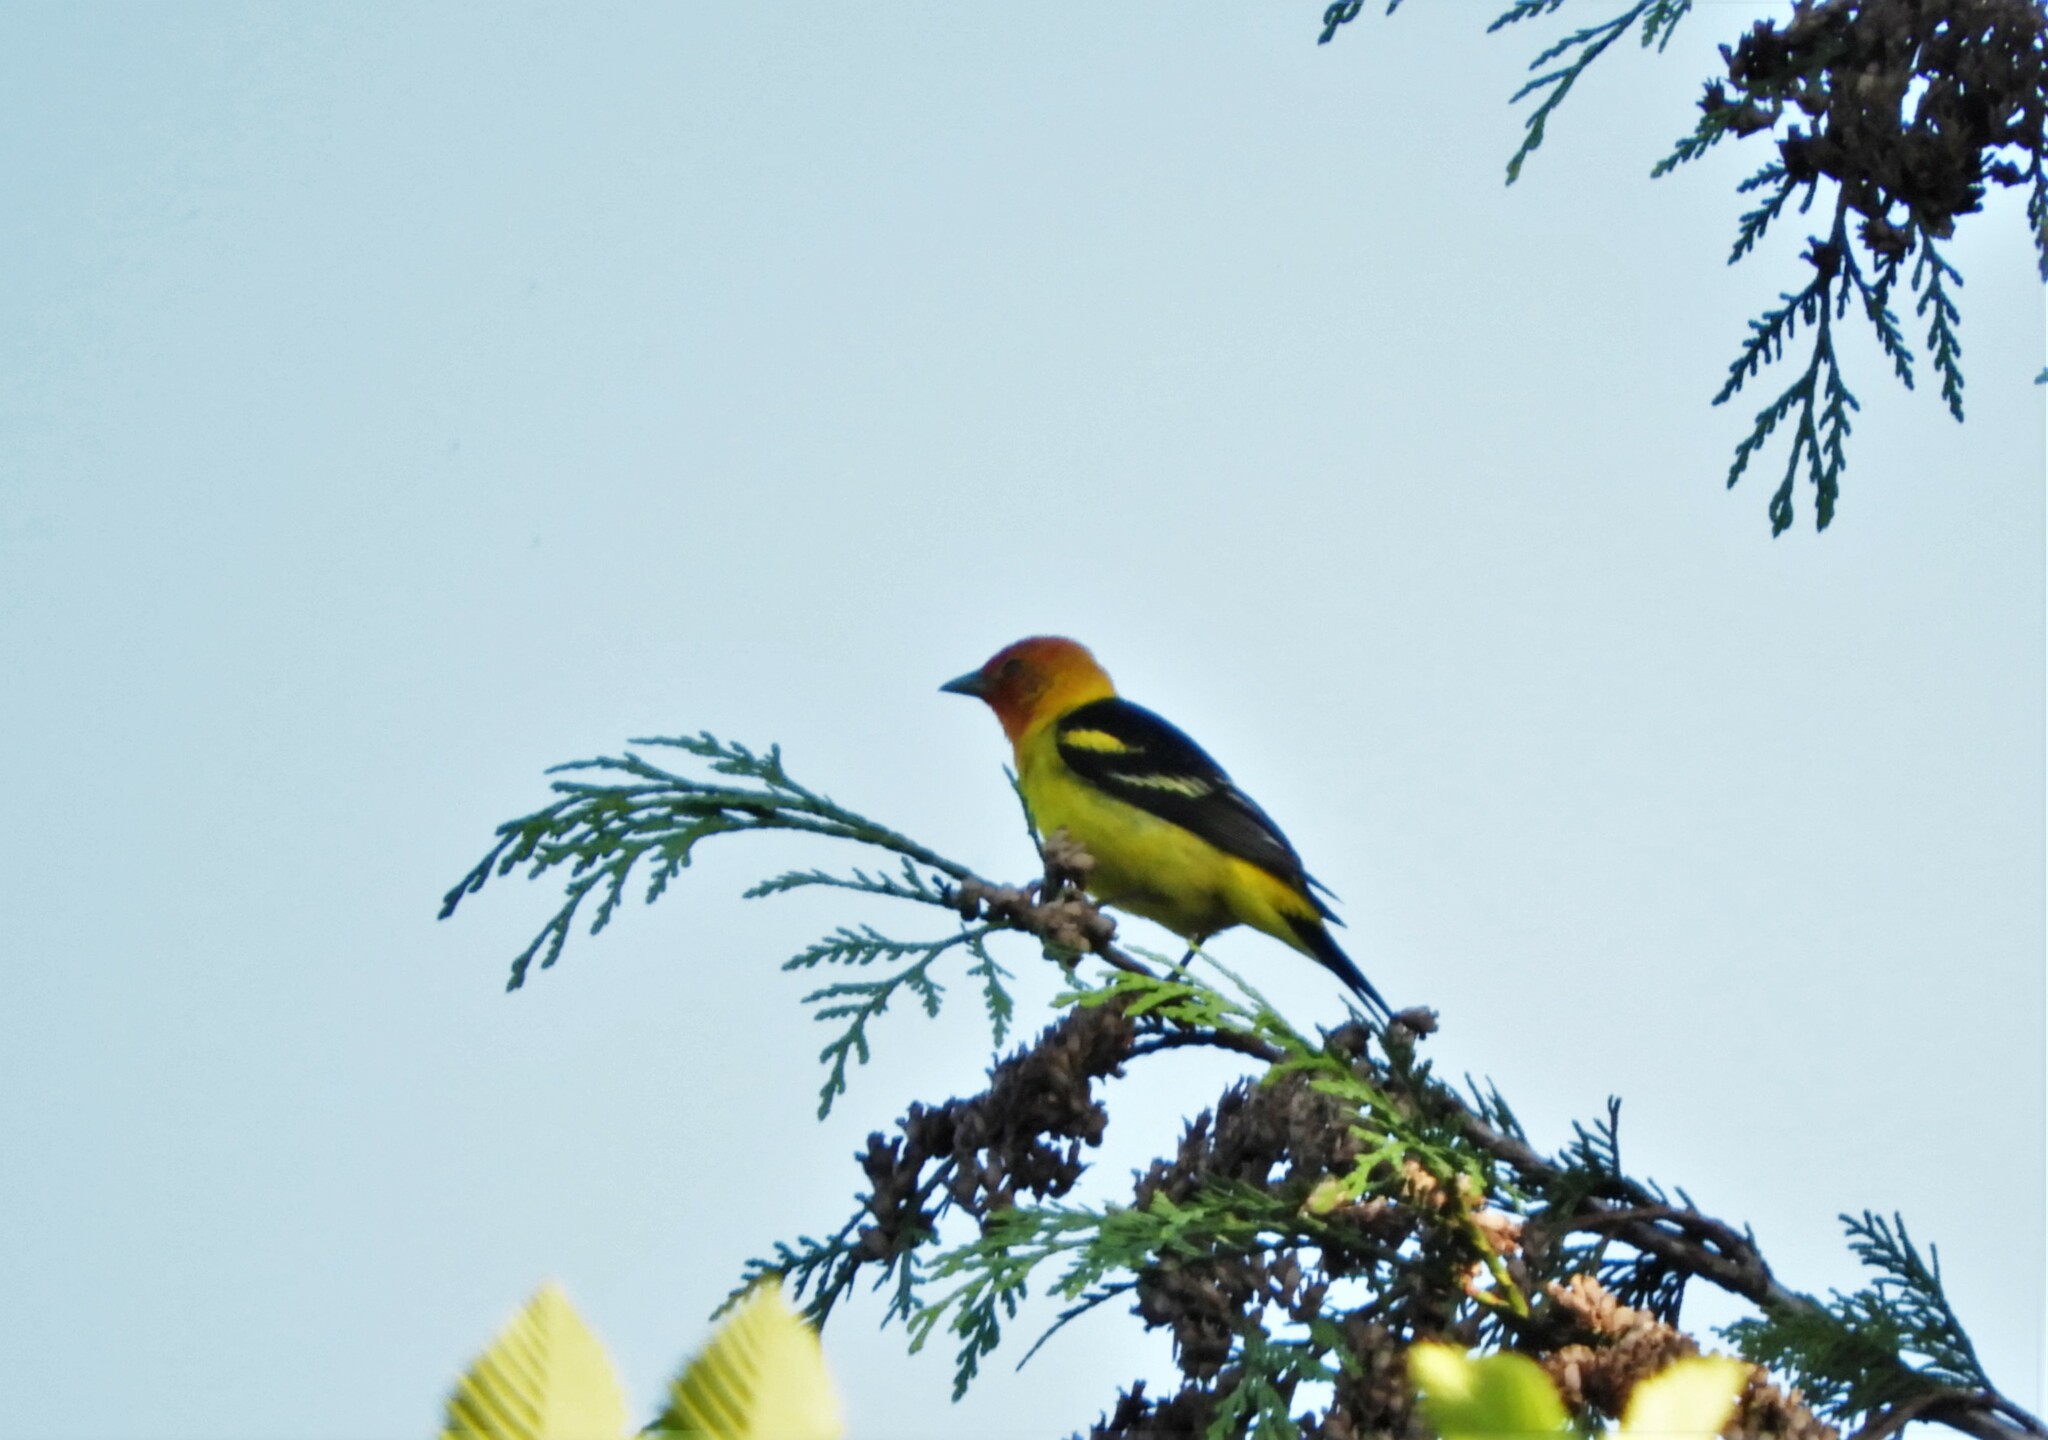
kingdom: Animalia
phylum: Chordata
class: Aves
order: Passeriformes
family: Cardinalidae
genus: Piranga
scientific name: Piranga ludoviciana
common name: Western tanager
